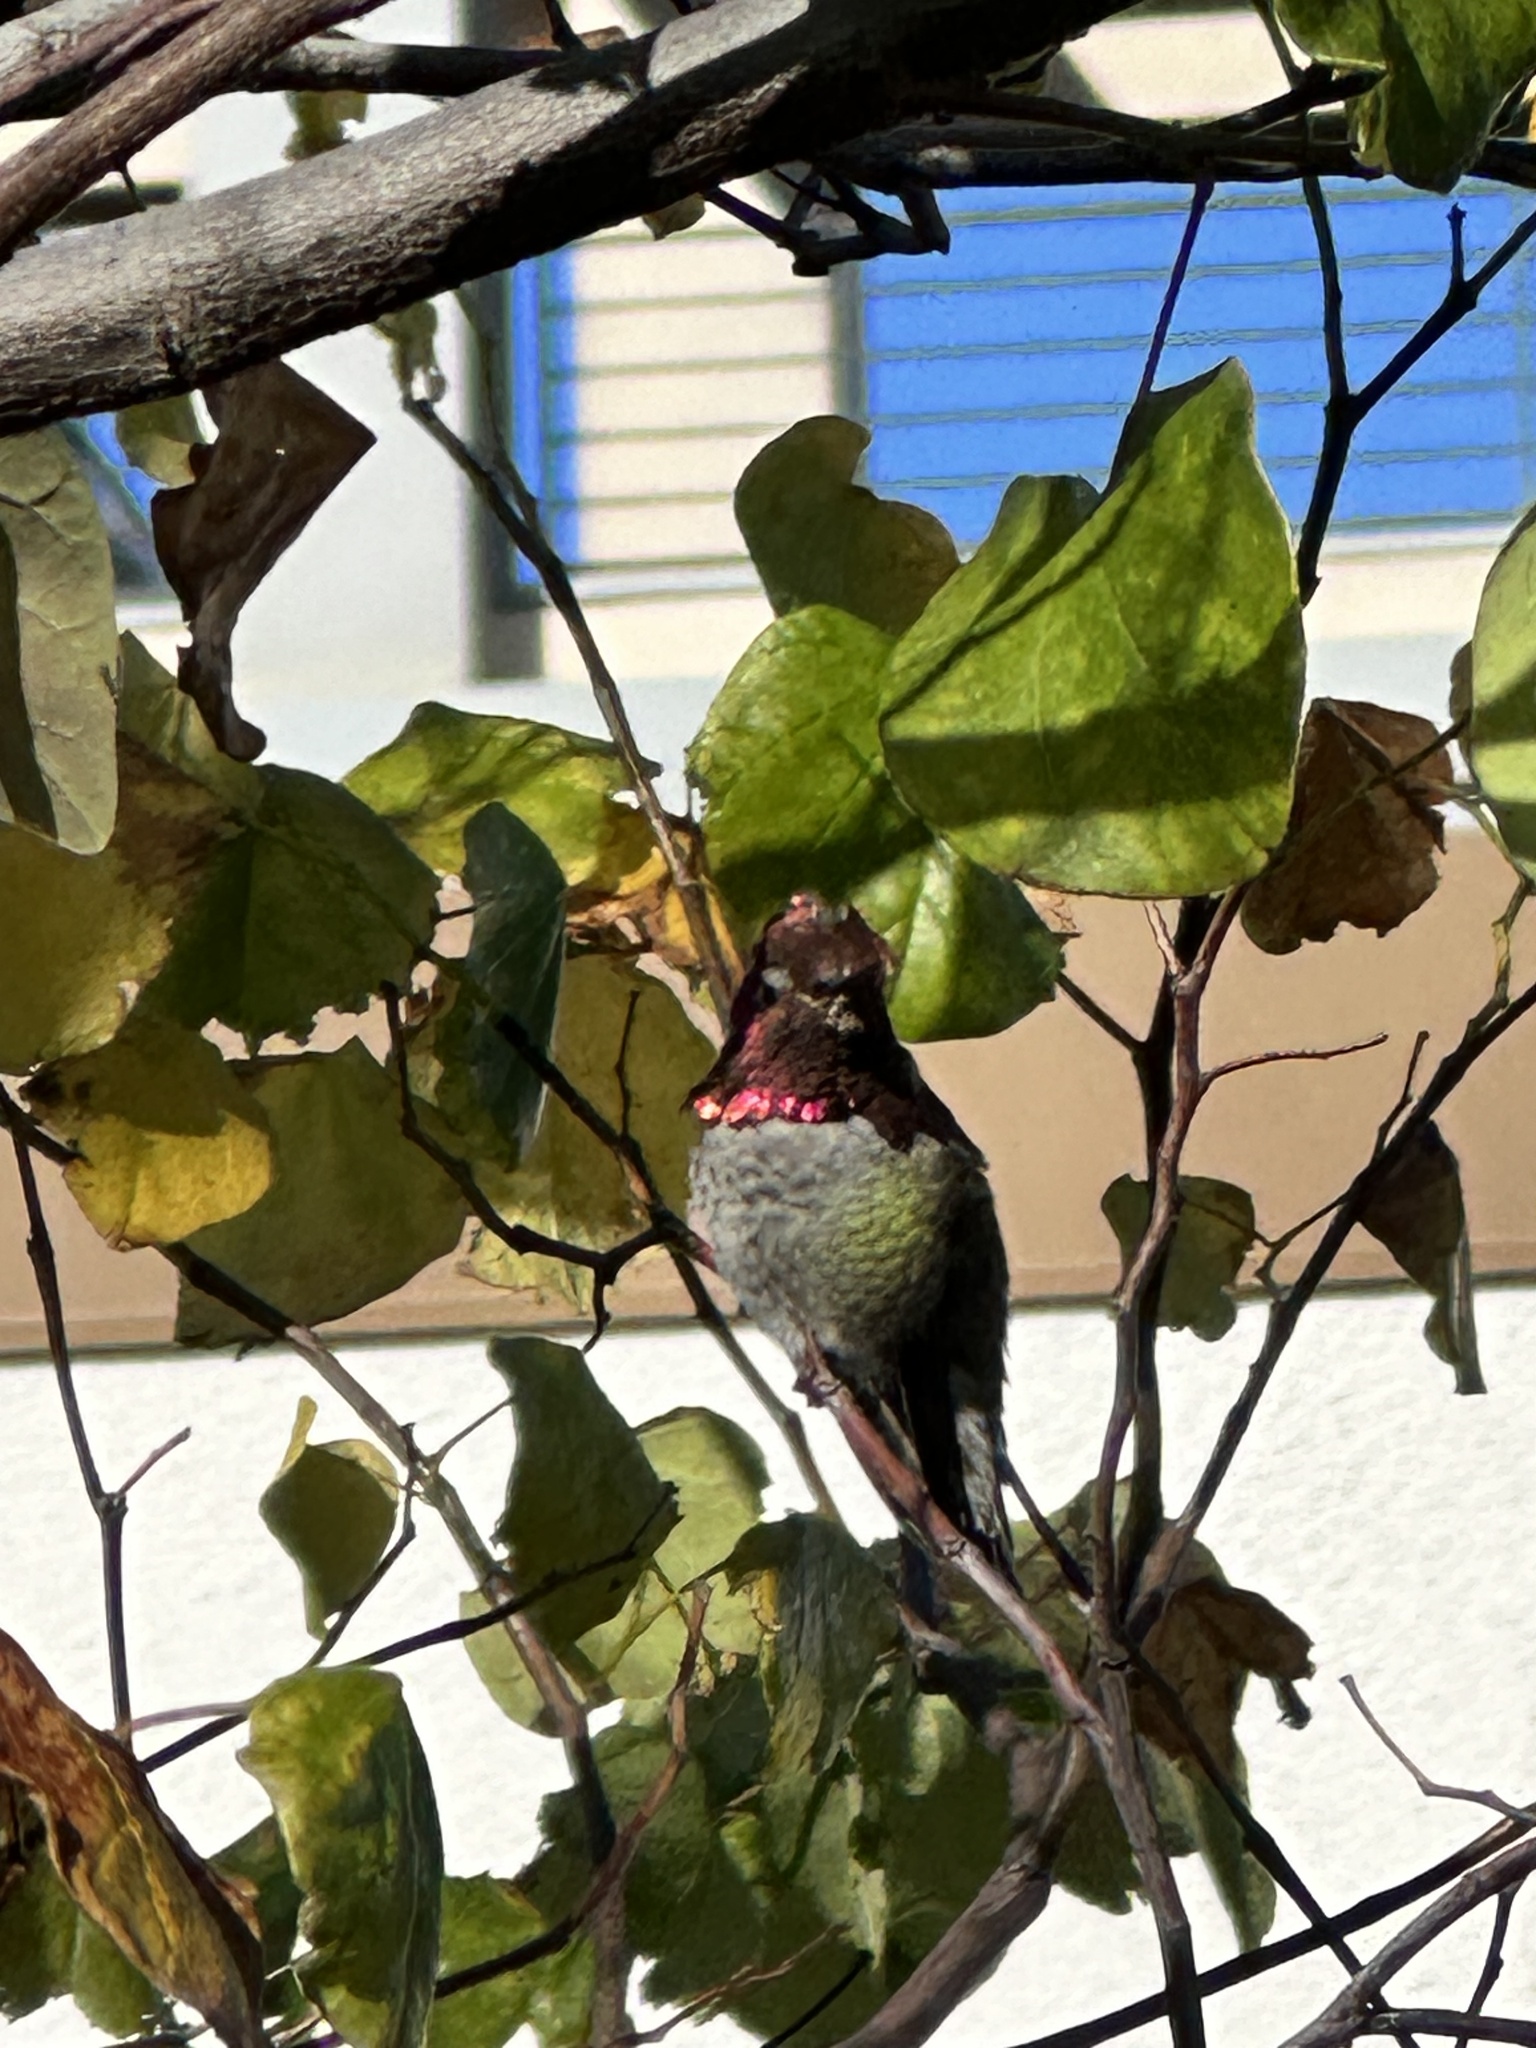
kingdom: Animalia
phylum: Chordata
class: Aves
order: Apodiformes
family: Trochilidae
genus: Calypte
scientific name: Calypte anna
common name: Anna's hummingbird
